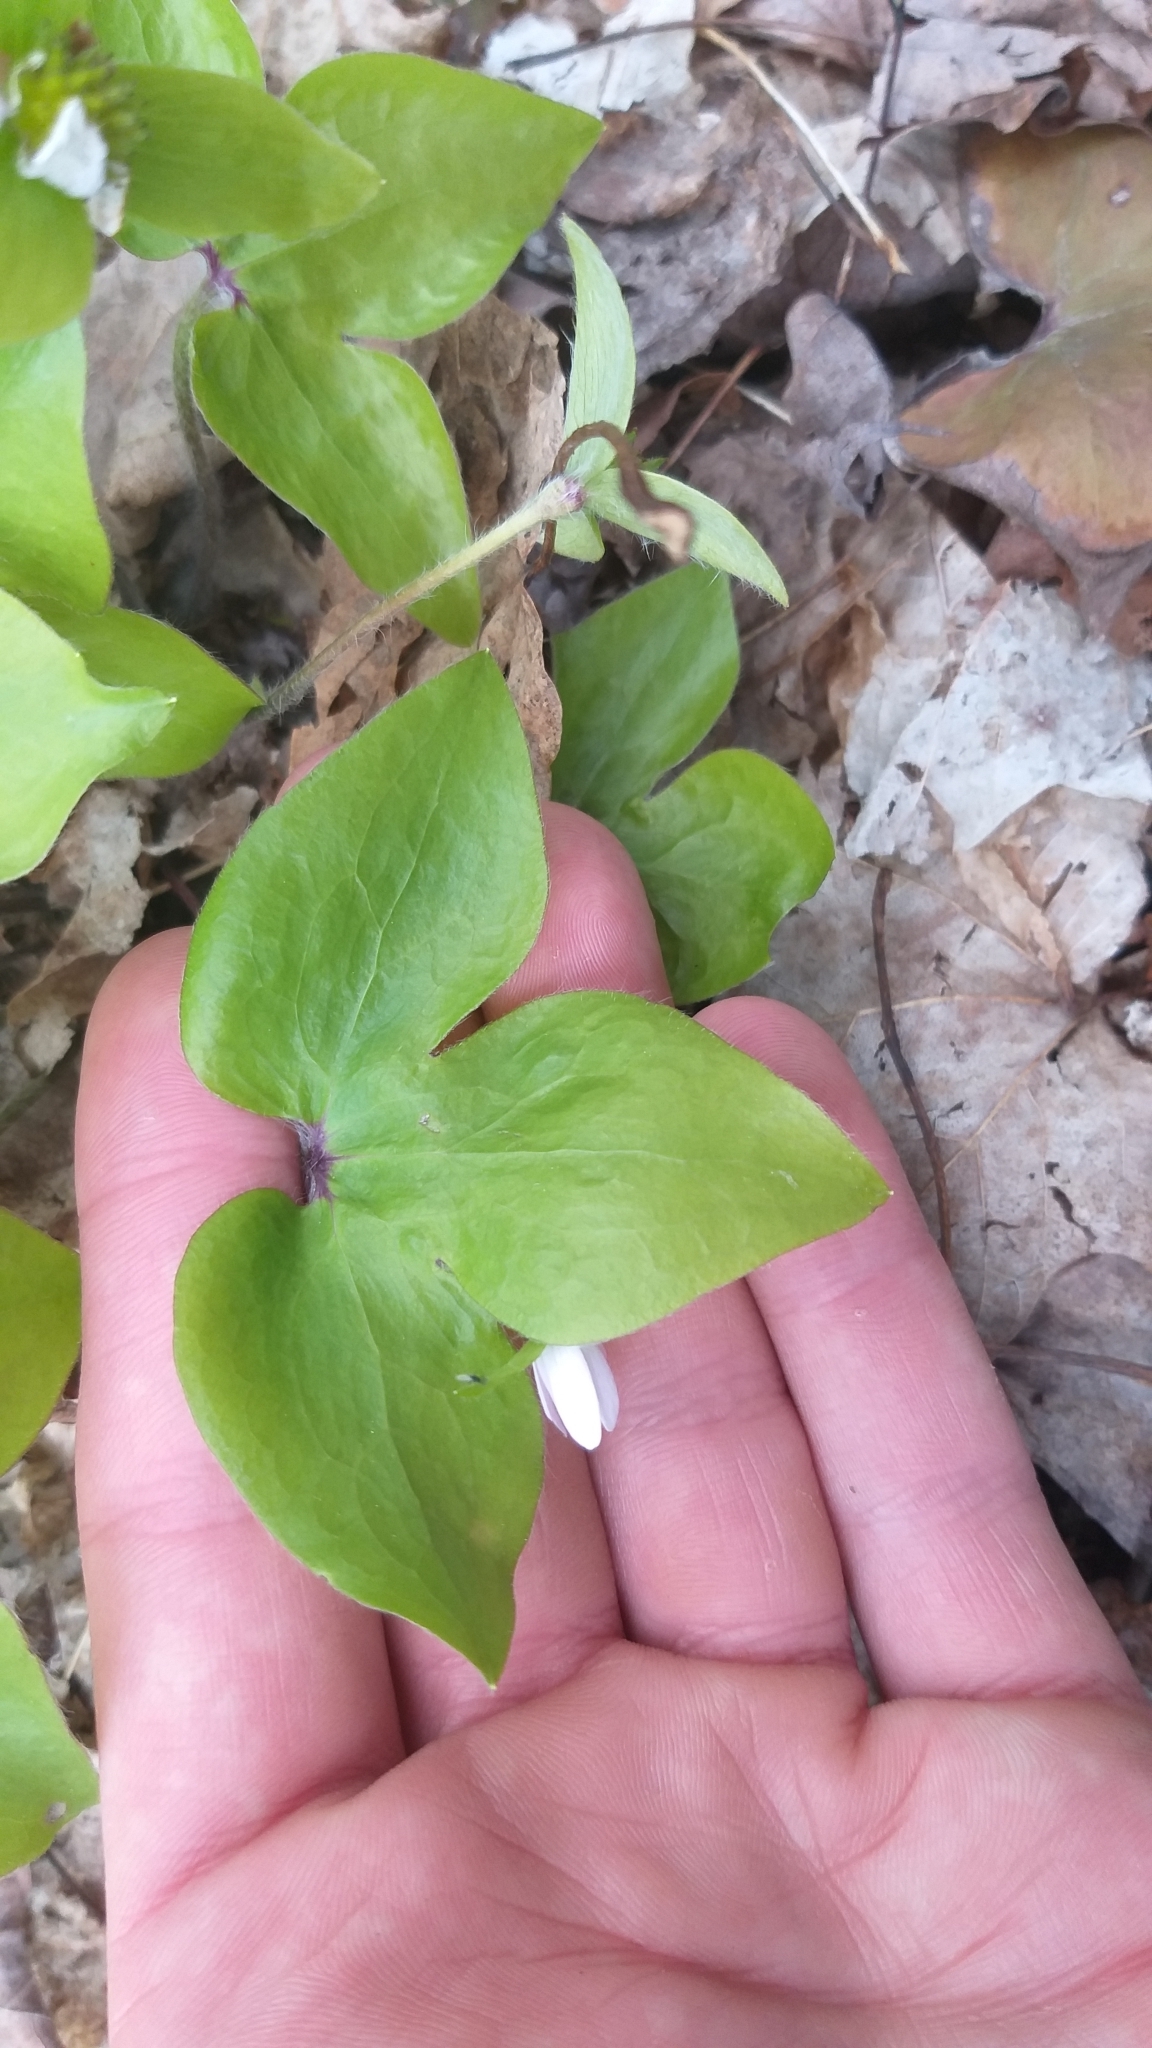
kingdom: Plantae
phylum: Tracheophyta
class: Magnoliopsida
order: Ranunculales
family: Ranunculaceae
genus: Hepatica
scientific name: Hepatica acutiloba
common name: Sharp-lobed hepatica
